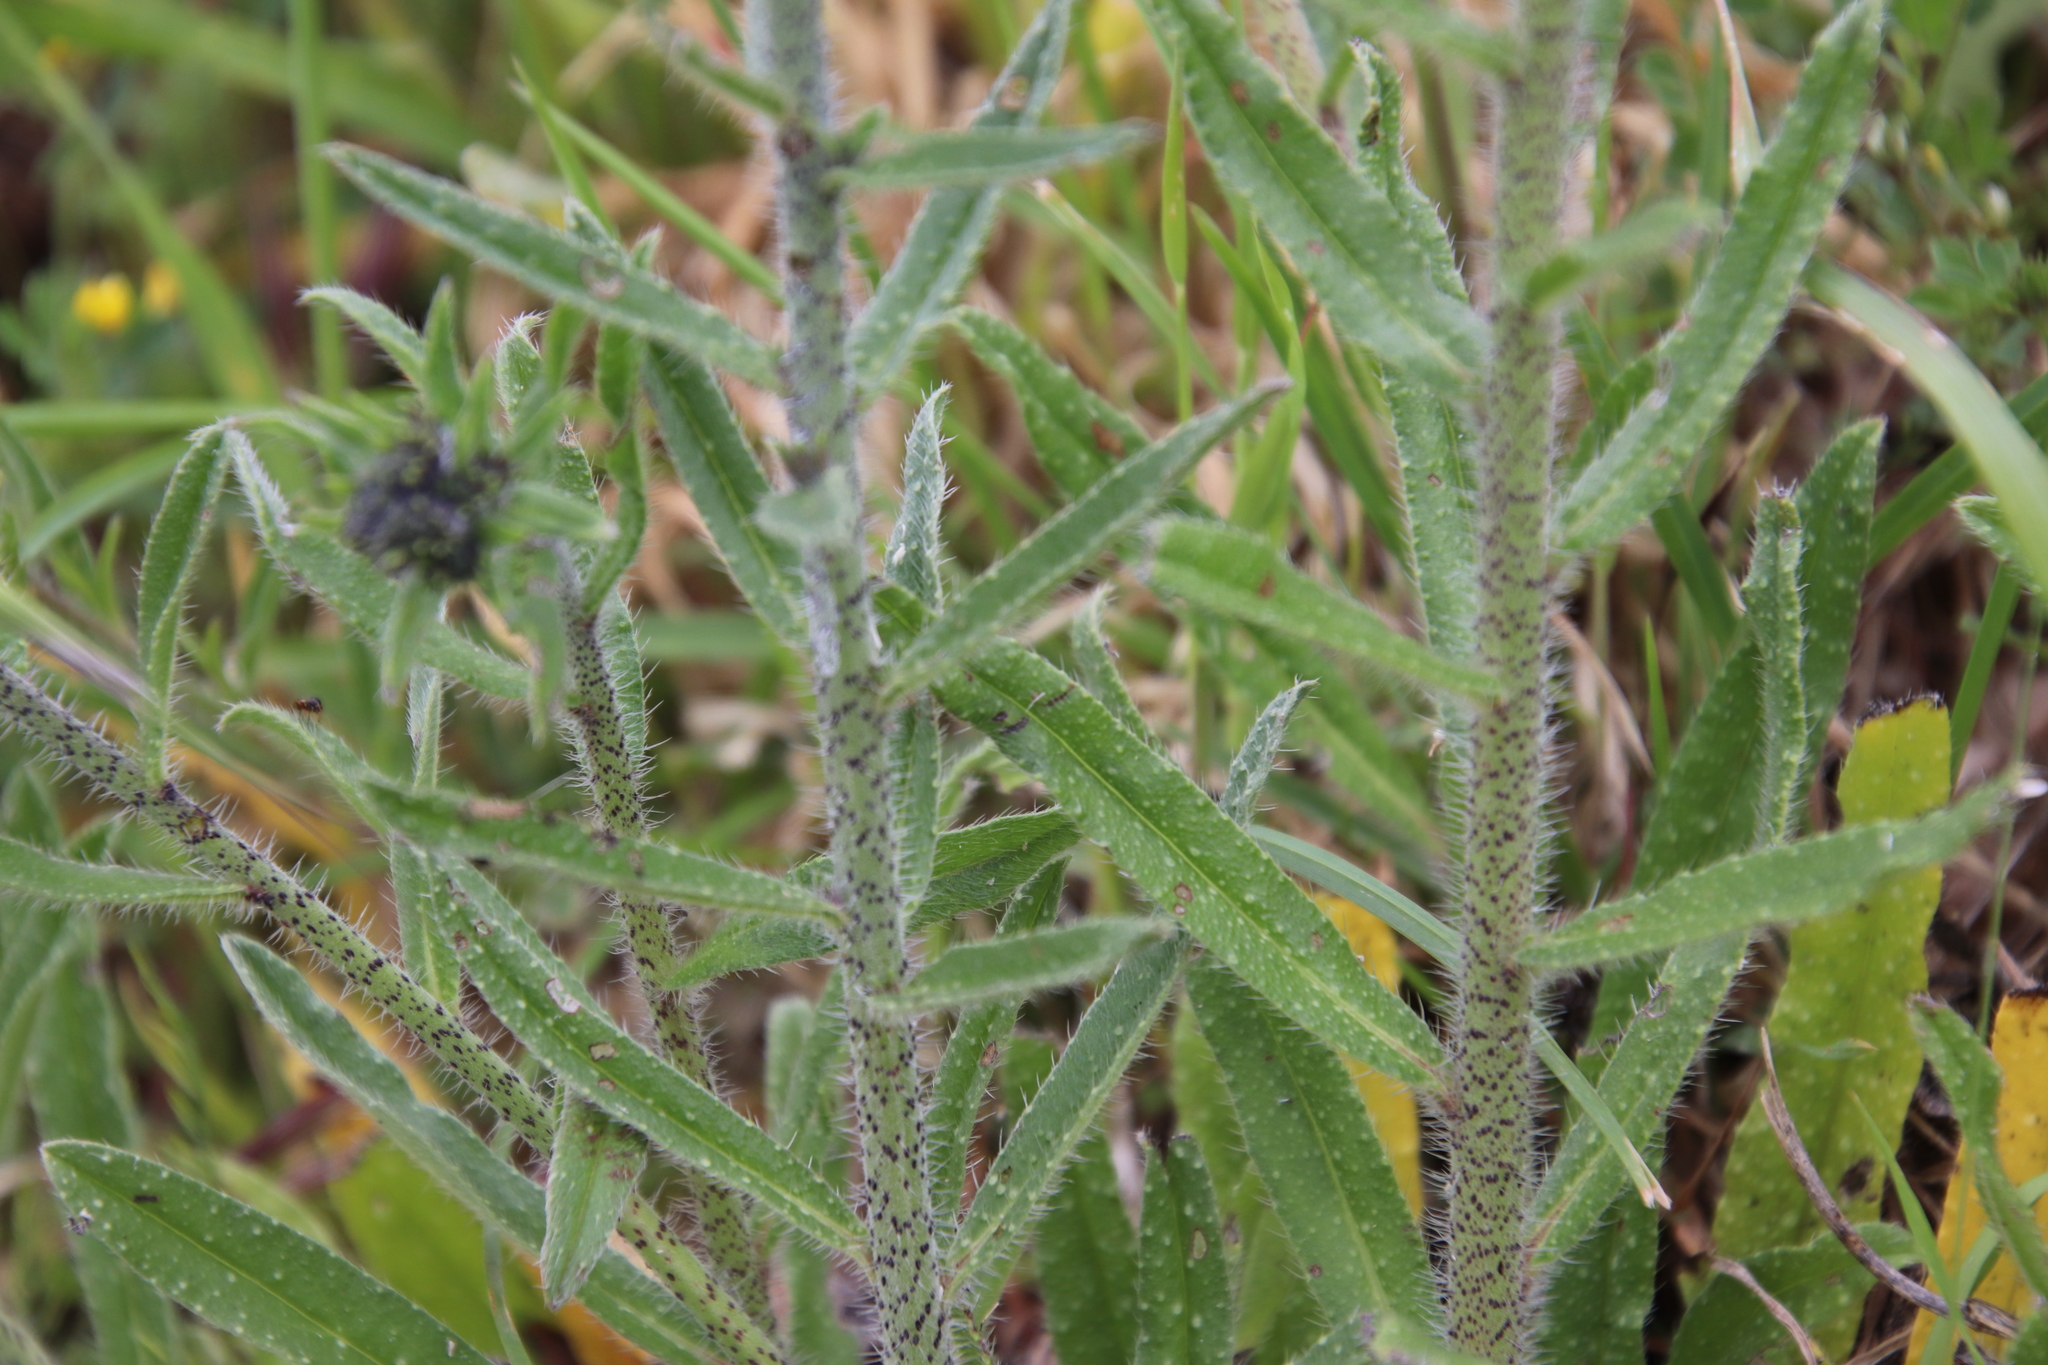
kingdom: Plantae
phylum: Tracheophyta
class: Magnoliopsida
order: Boraginales
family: Boraginaceae
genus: Echium
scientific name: Echium vulgare
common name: Common viper's bugloss
